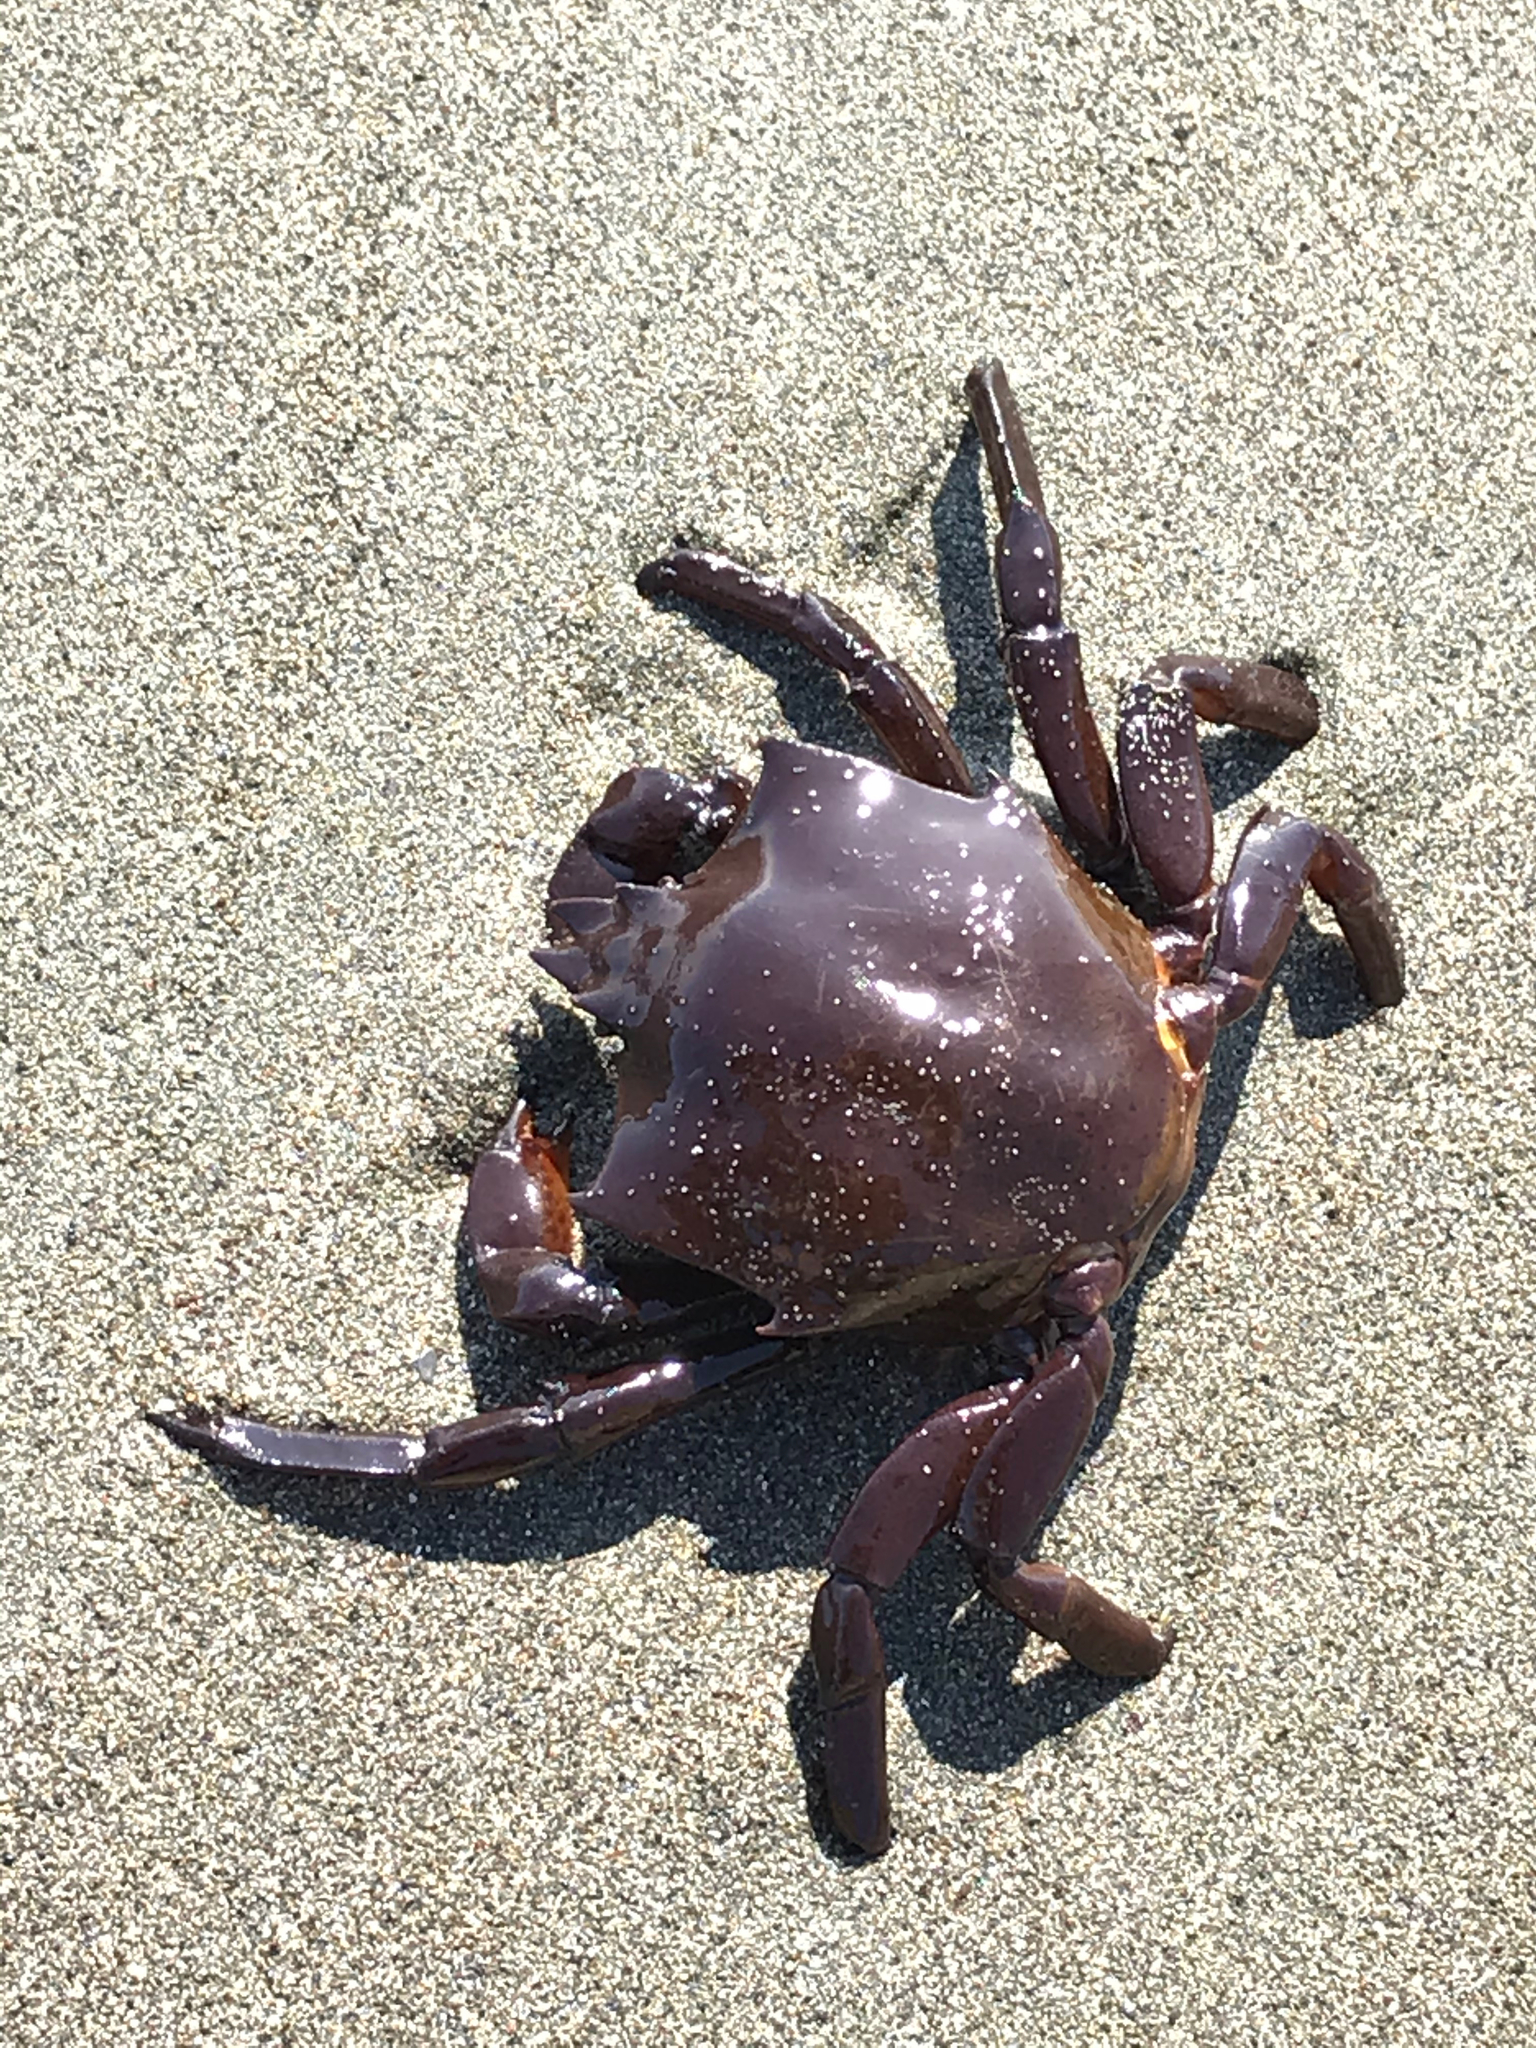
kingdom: Animalia
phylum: Arthropoda
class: Malacostraca
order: Decapoda
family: Epialtidae
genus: Pugettia
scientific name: Pugettia producta
